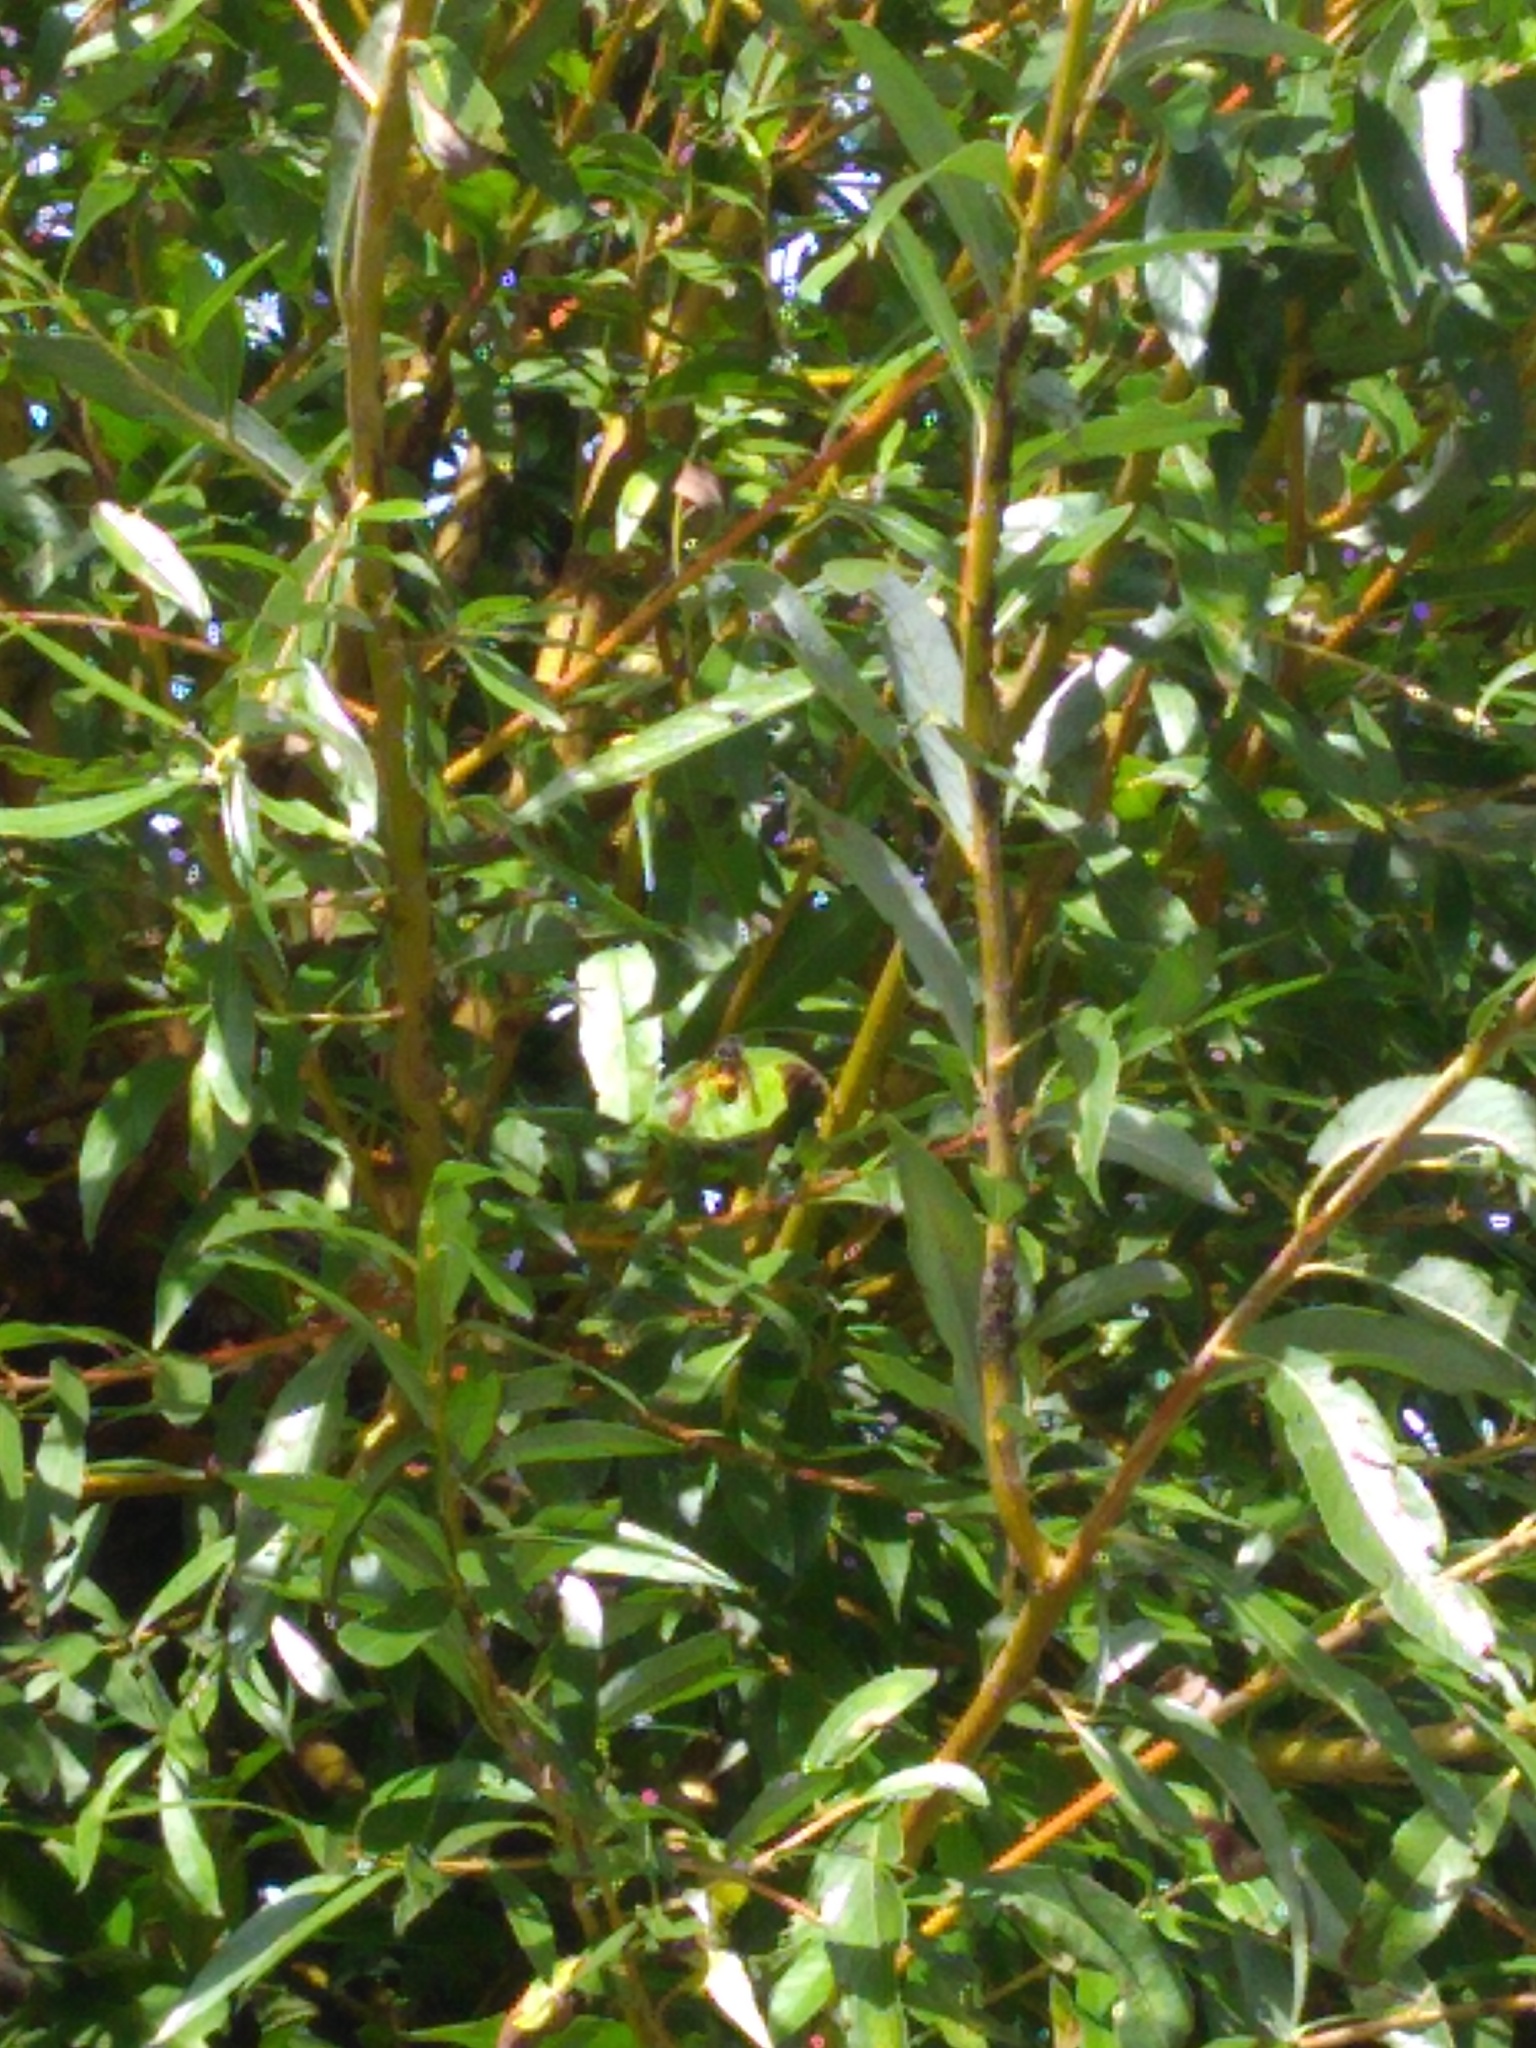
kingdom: Animalia
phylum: Arthropoda
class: Insecta
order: Hymenoptera
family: Vespidae
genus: Vespa
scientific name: Vespa velutina
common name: Asian hornet
